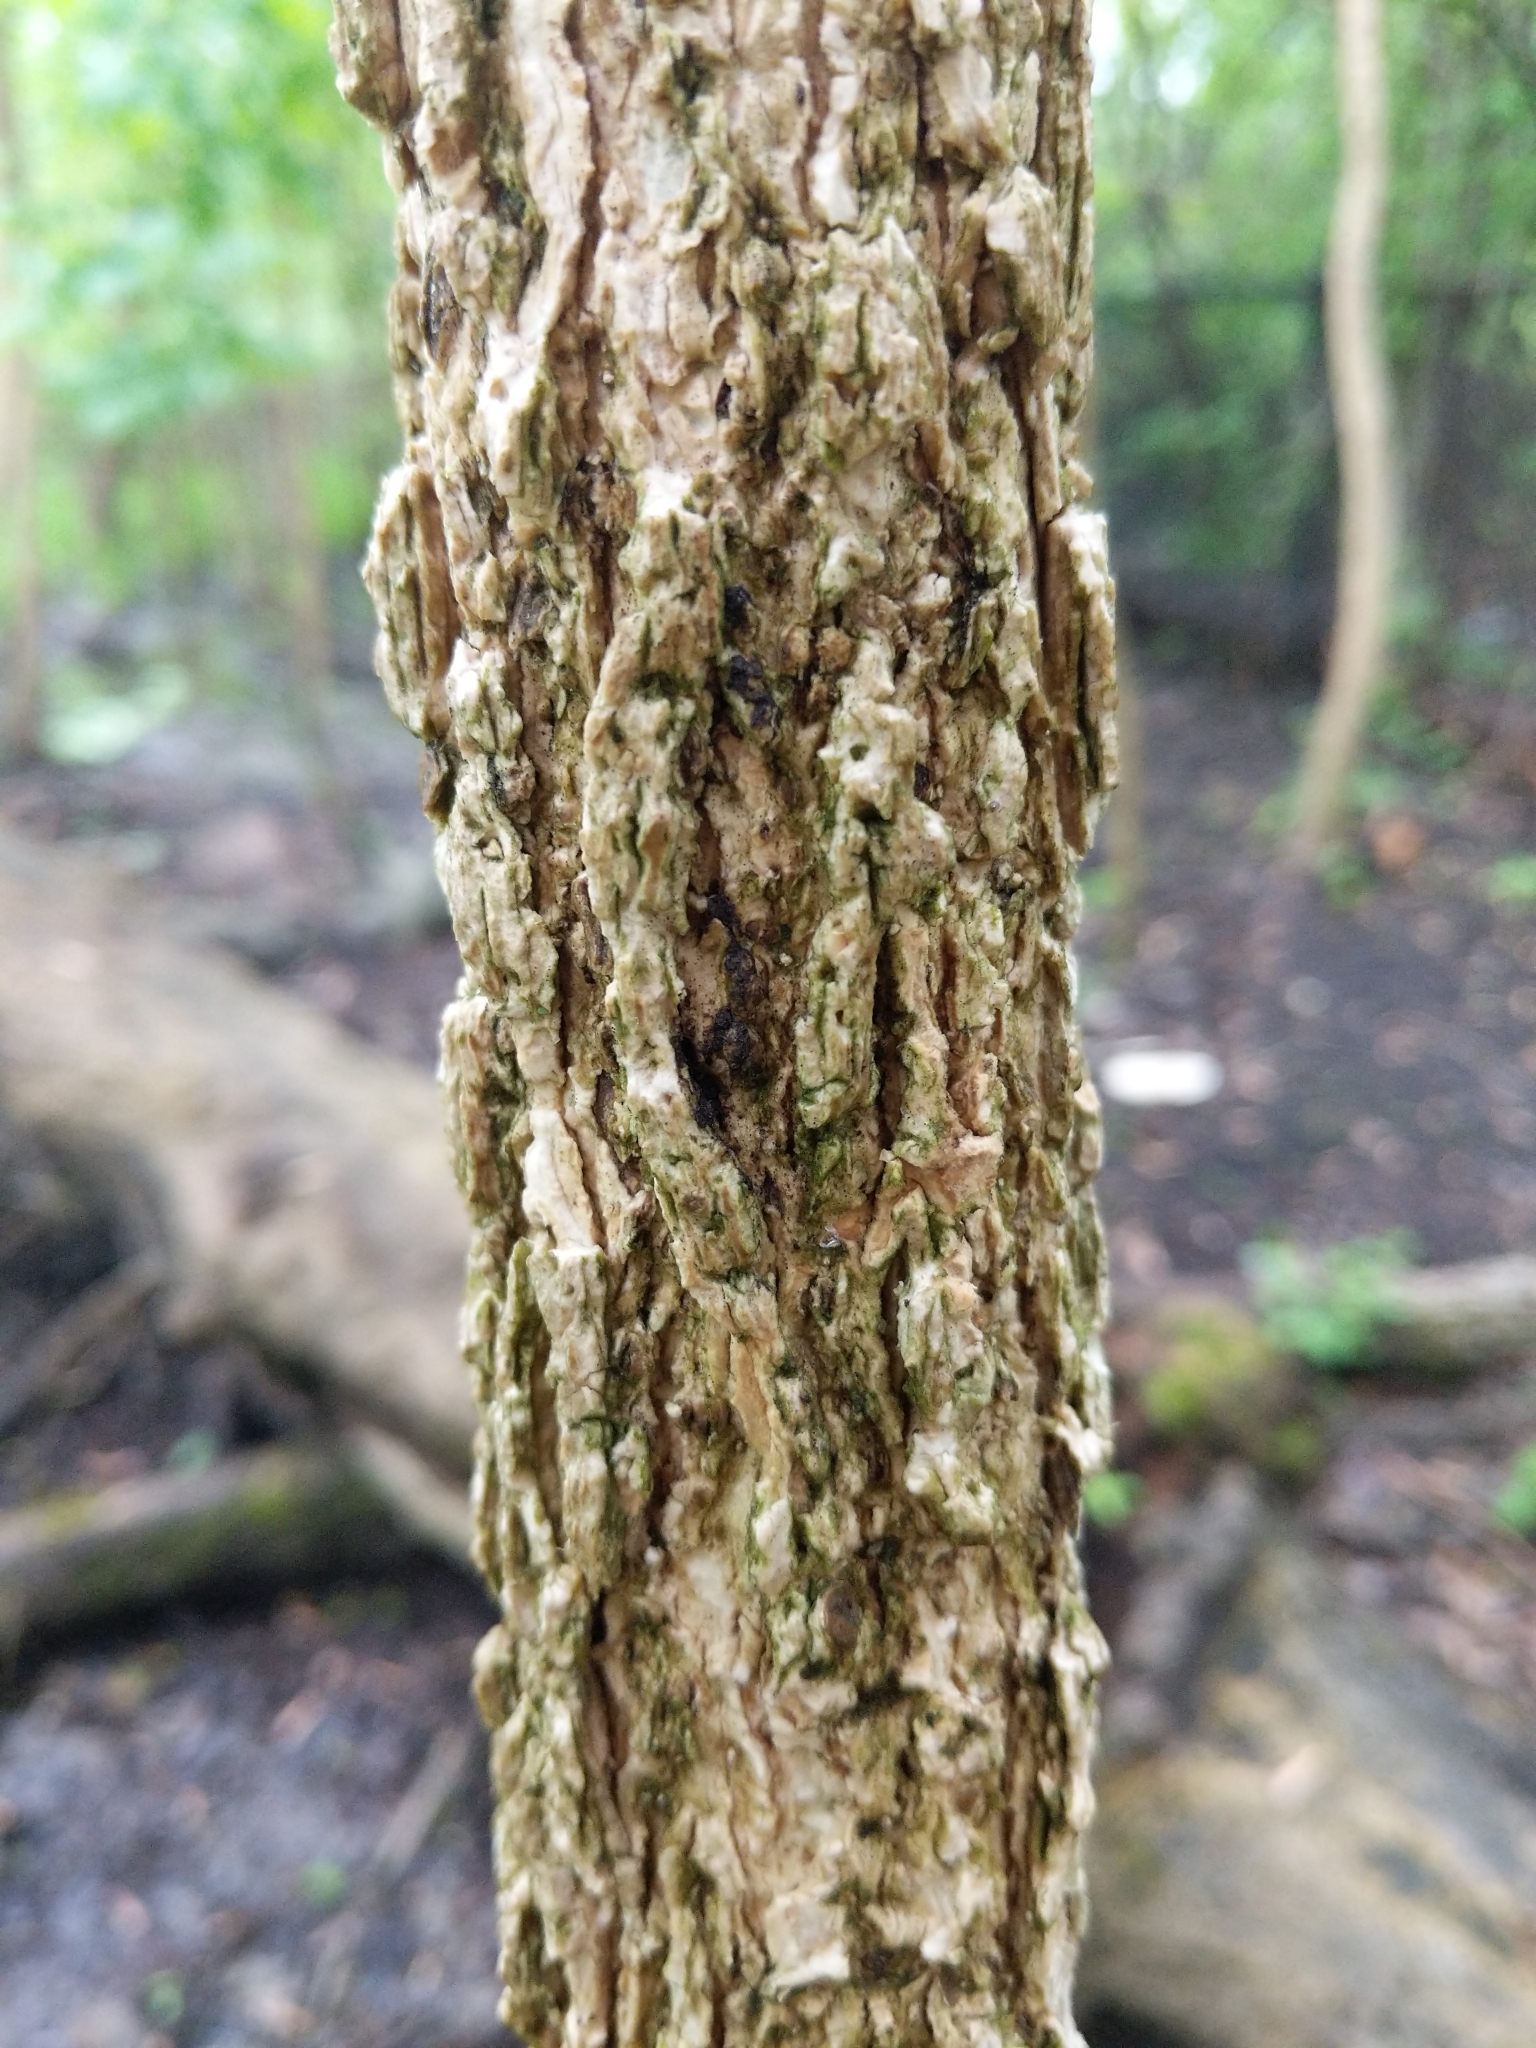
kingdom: Plantae
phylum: Tracheophyta
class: Magnoliopsida
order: Lamiales
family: Oleaceae
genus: Fraxinus
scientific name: Fraxinus nigra
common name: Black ash
